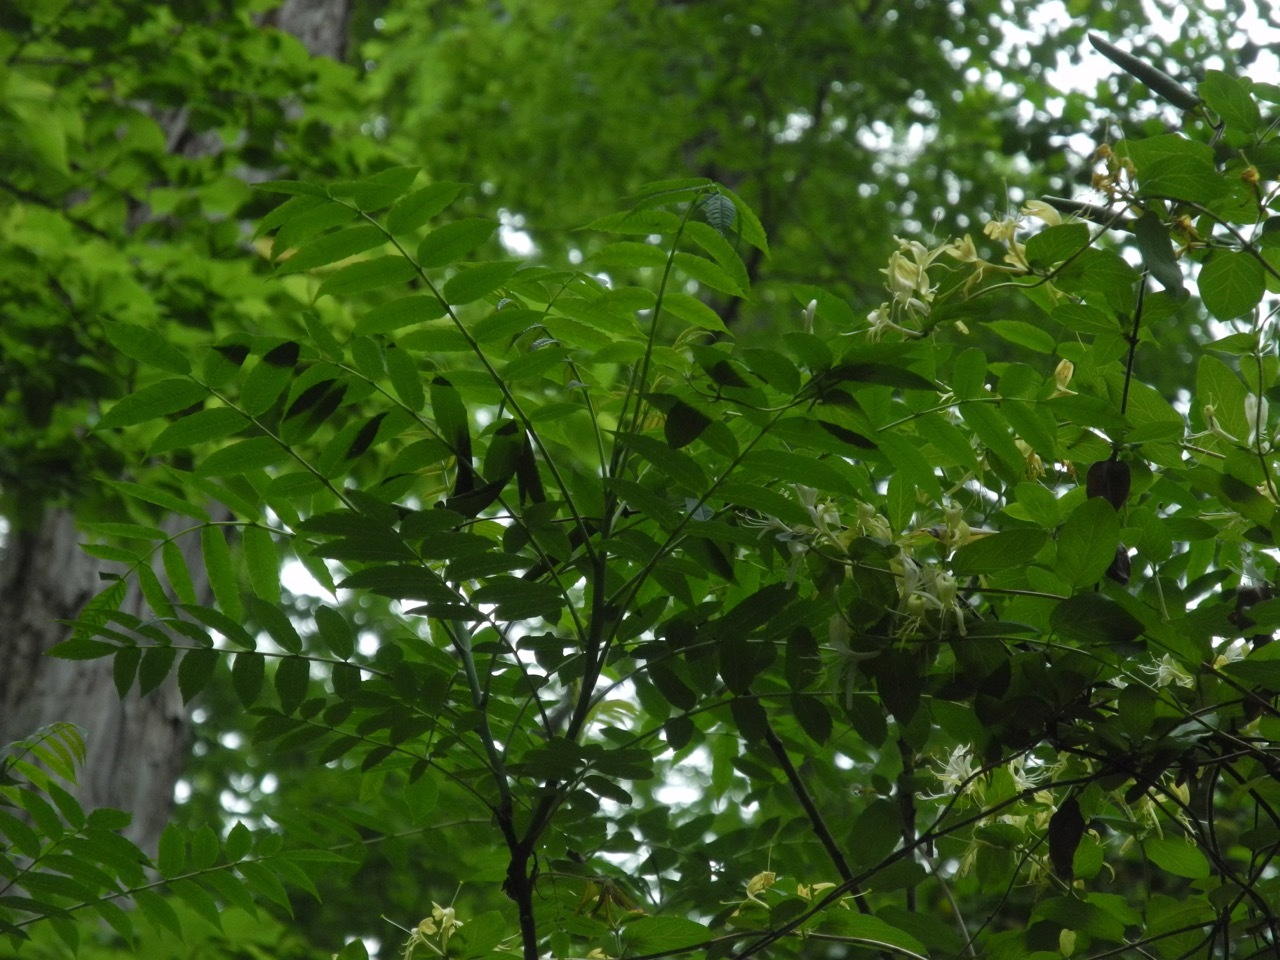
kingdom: Plantae
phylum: Tracheophyta
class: Magnoliopsida
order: Dipsacales
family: Caprifoliaceae
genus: Lonicera
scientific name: Lonicera japonica
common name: Japanese honeysuckle
